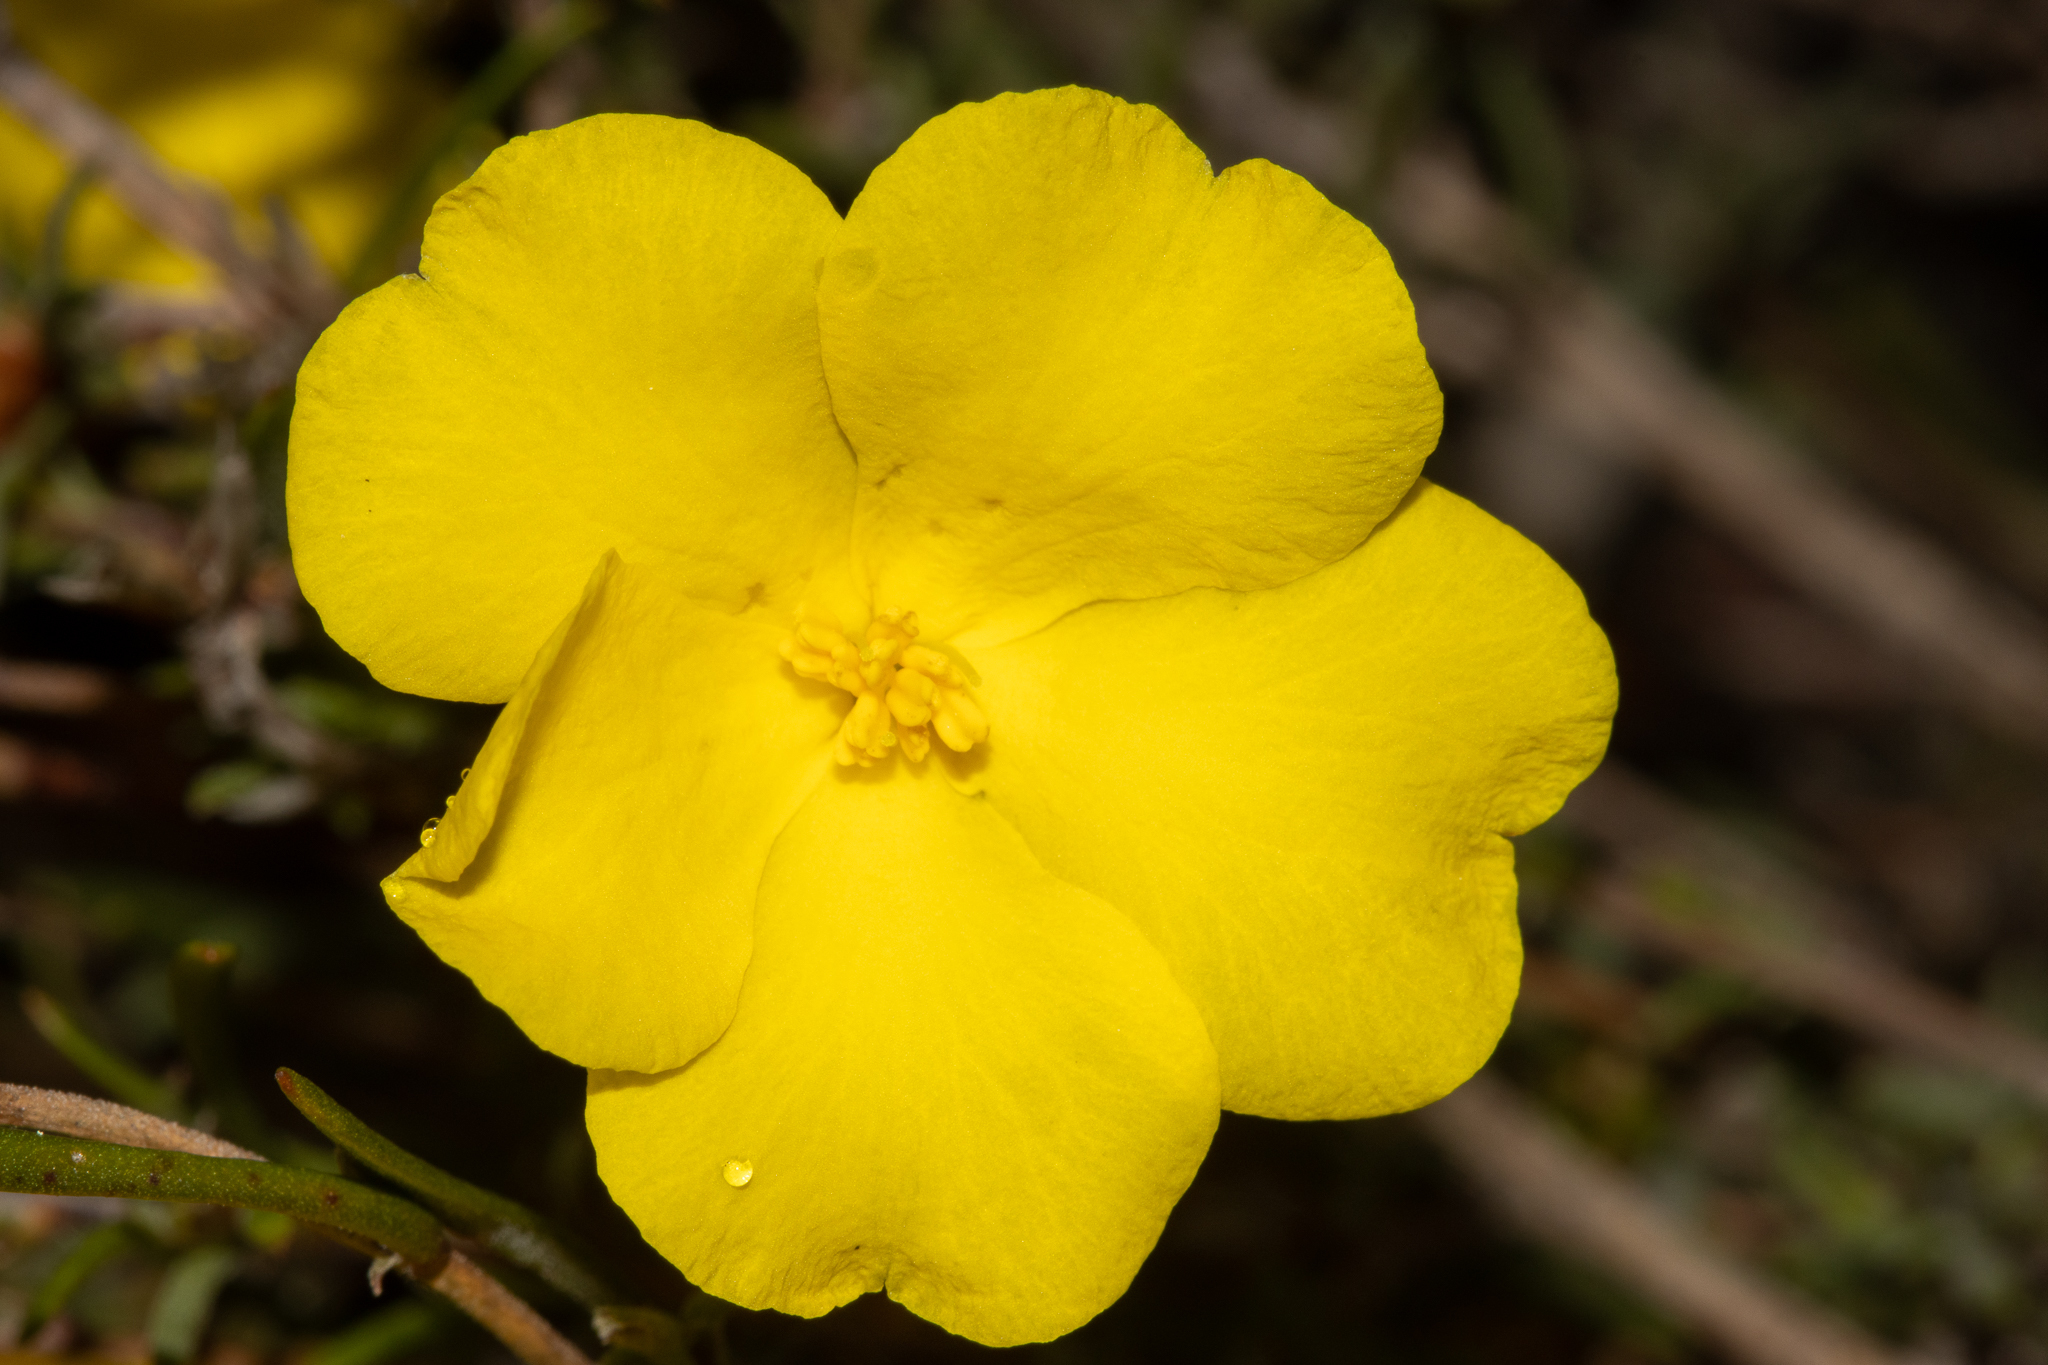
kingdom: Plantae
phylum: Tracheophyta
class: Magnoliopsida
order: Dilleniales
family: Dilleniaceae
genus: Hibbertia
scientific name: Hibbertia virgata
